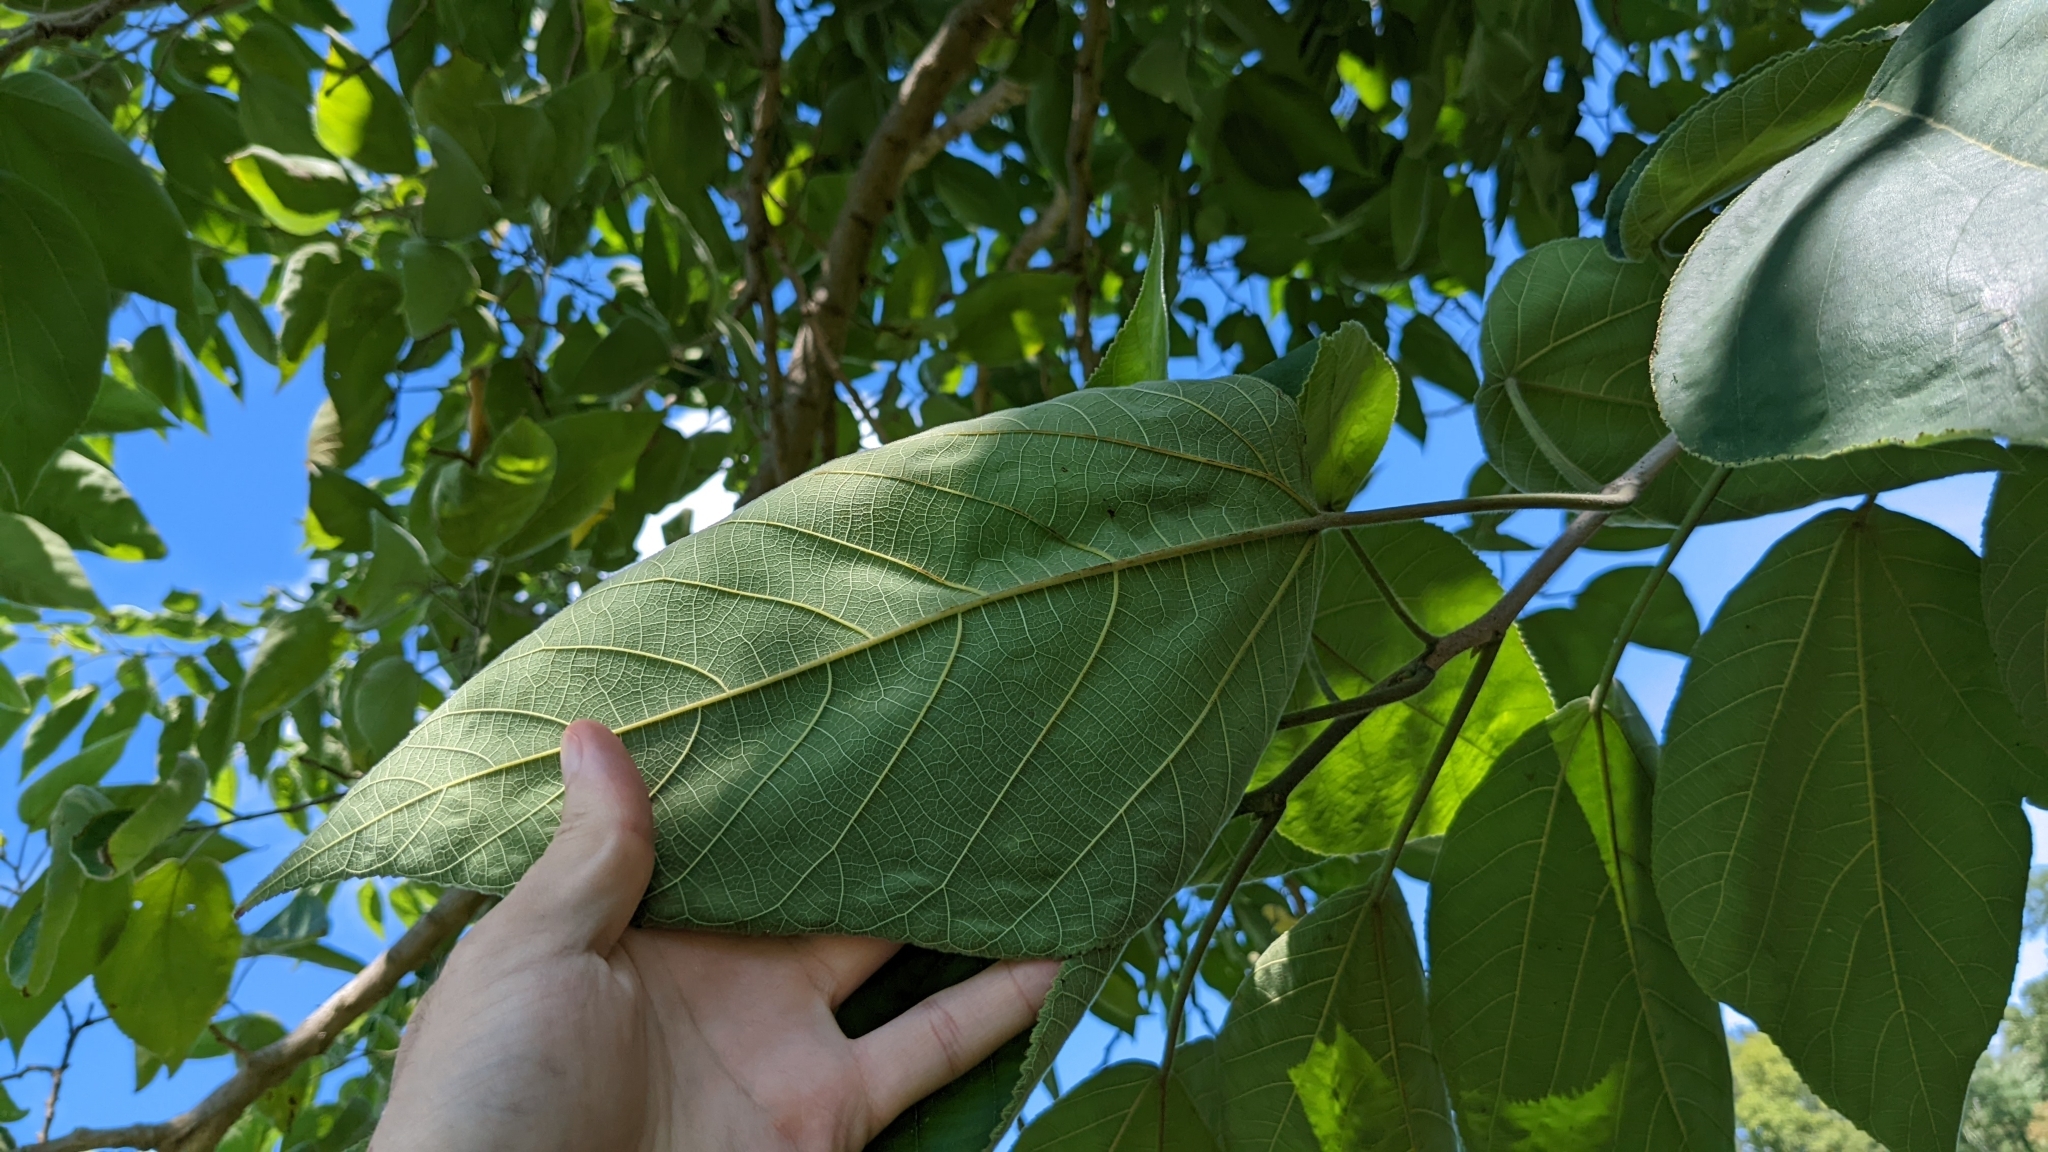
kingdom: Plantae
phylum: Tracheophyta
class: Magnoliopsida
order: Rosales
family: Moraceae
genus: Broussonetia
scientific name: Broussonetia papyrifera
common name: Paper mulberry
